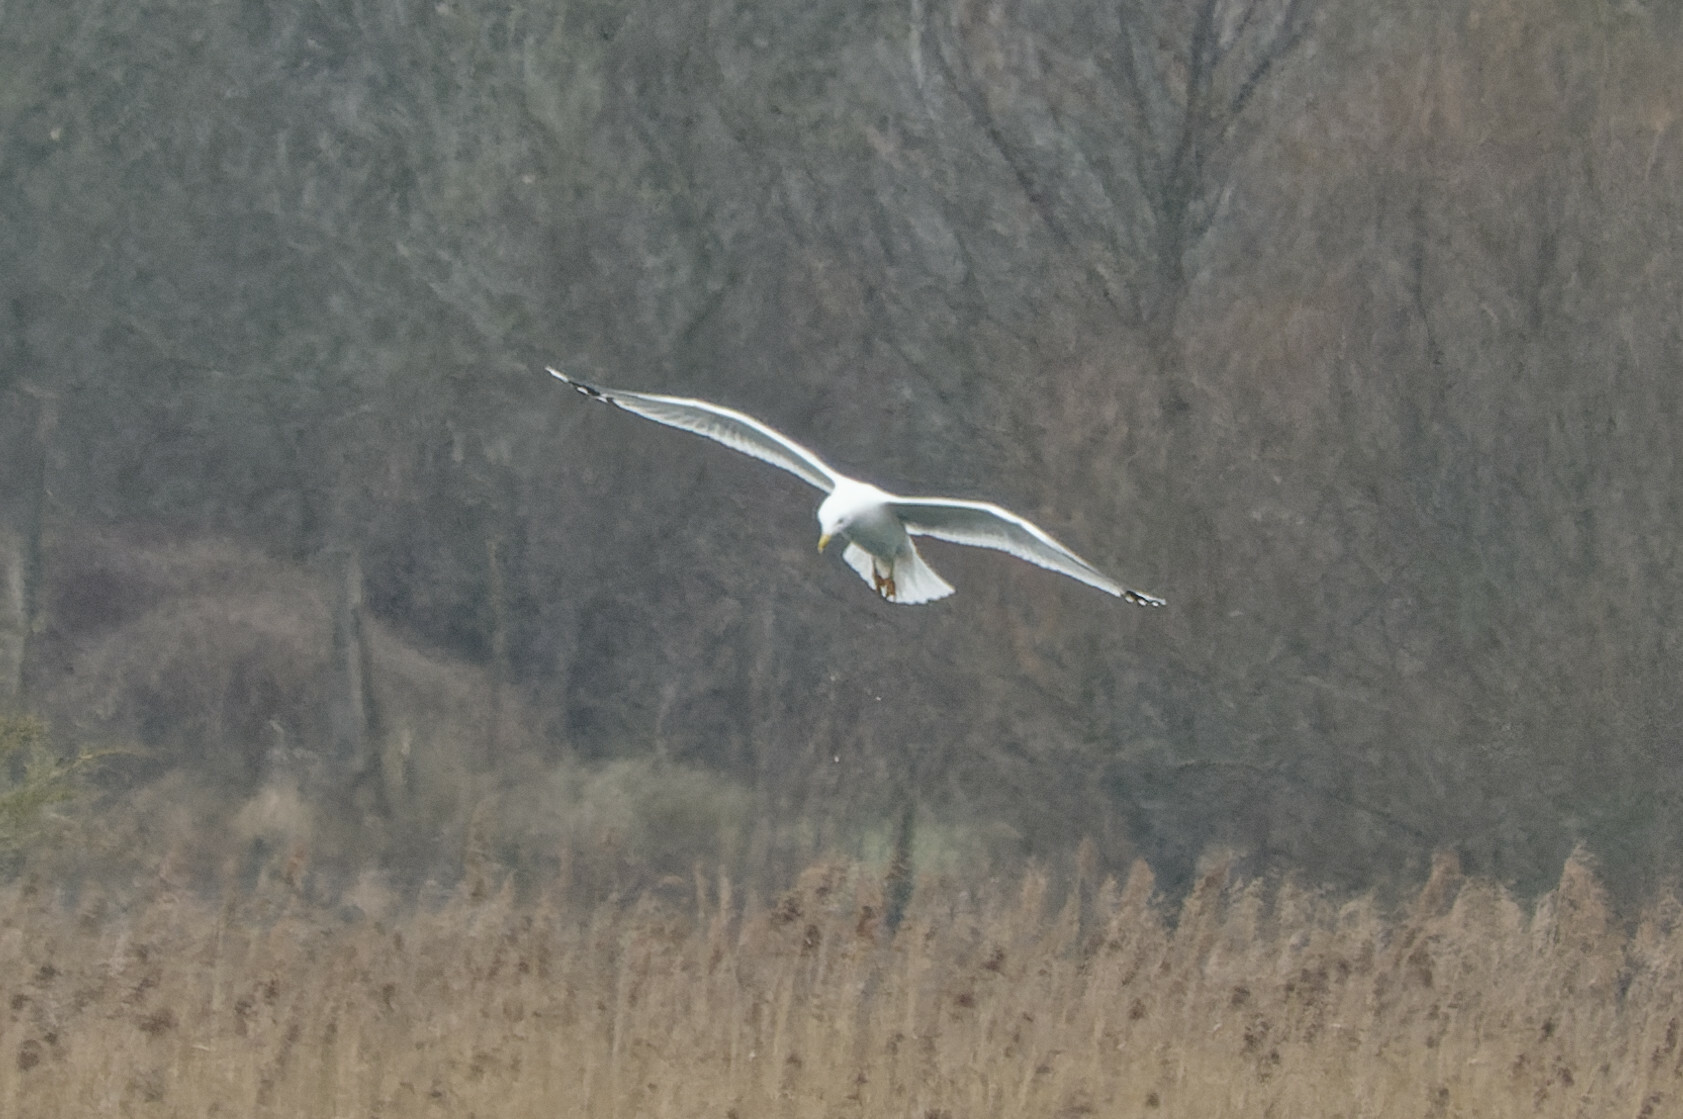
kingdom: Animalia
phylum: Chordata
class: Aves
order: Charadriiformes
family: Laridae
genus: Larus
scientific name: Larus cachinnans
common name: Caspian gull
